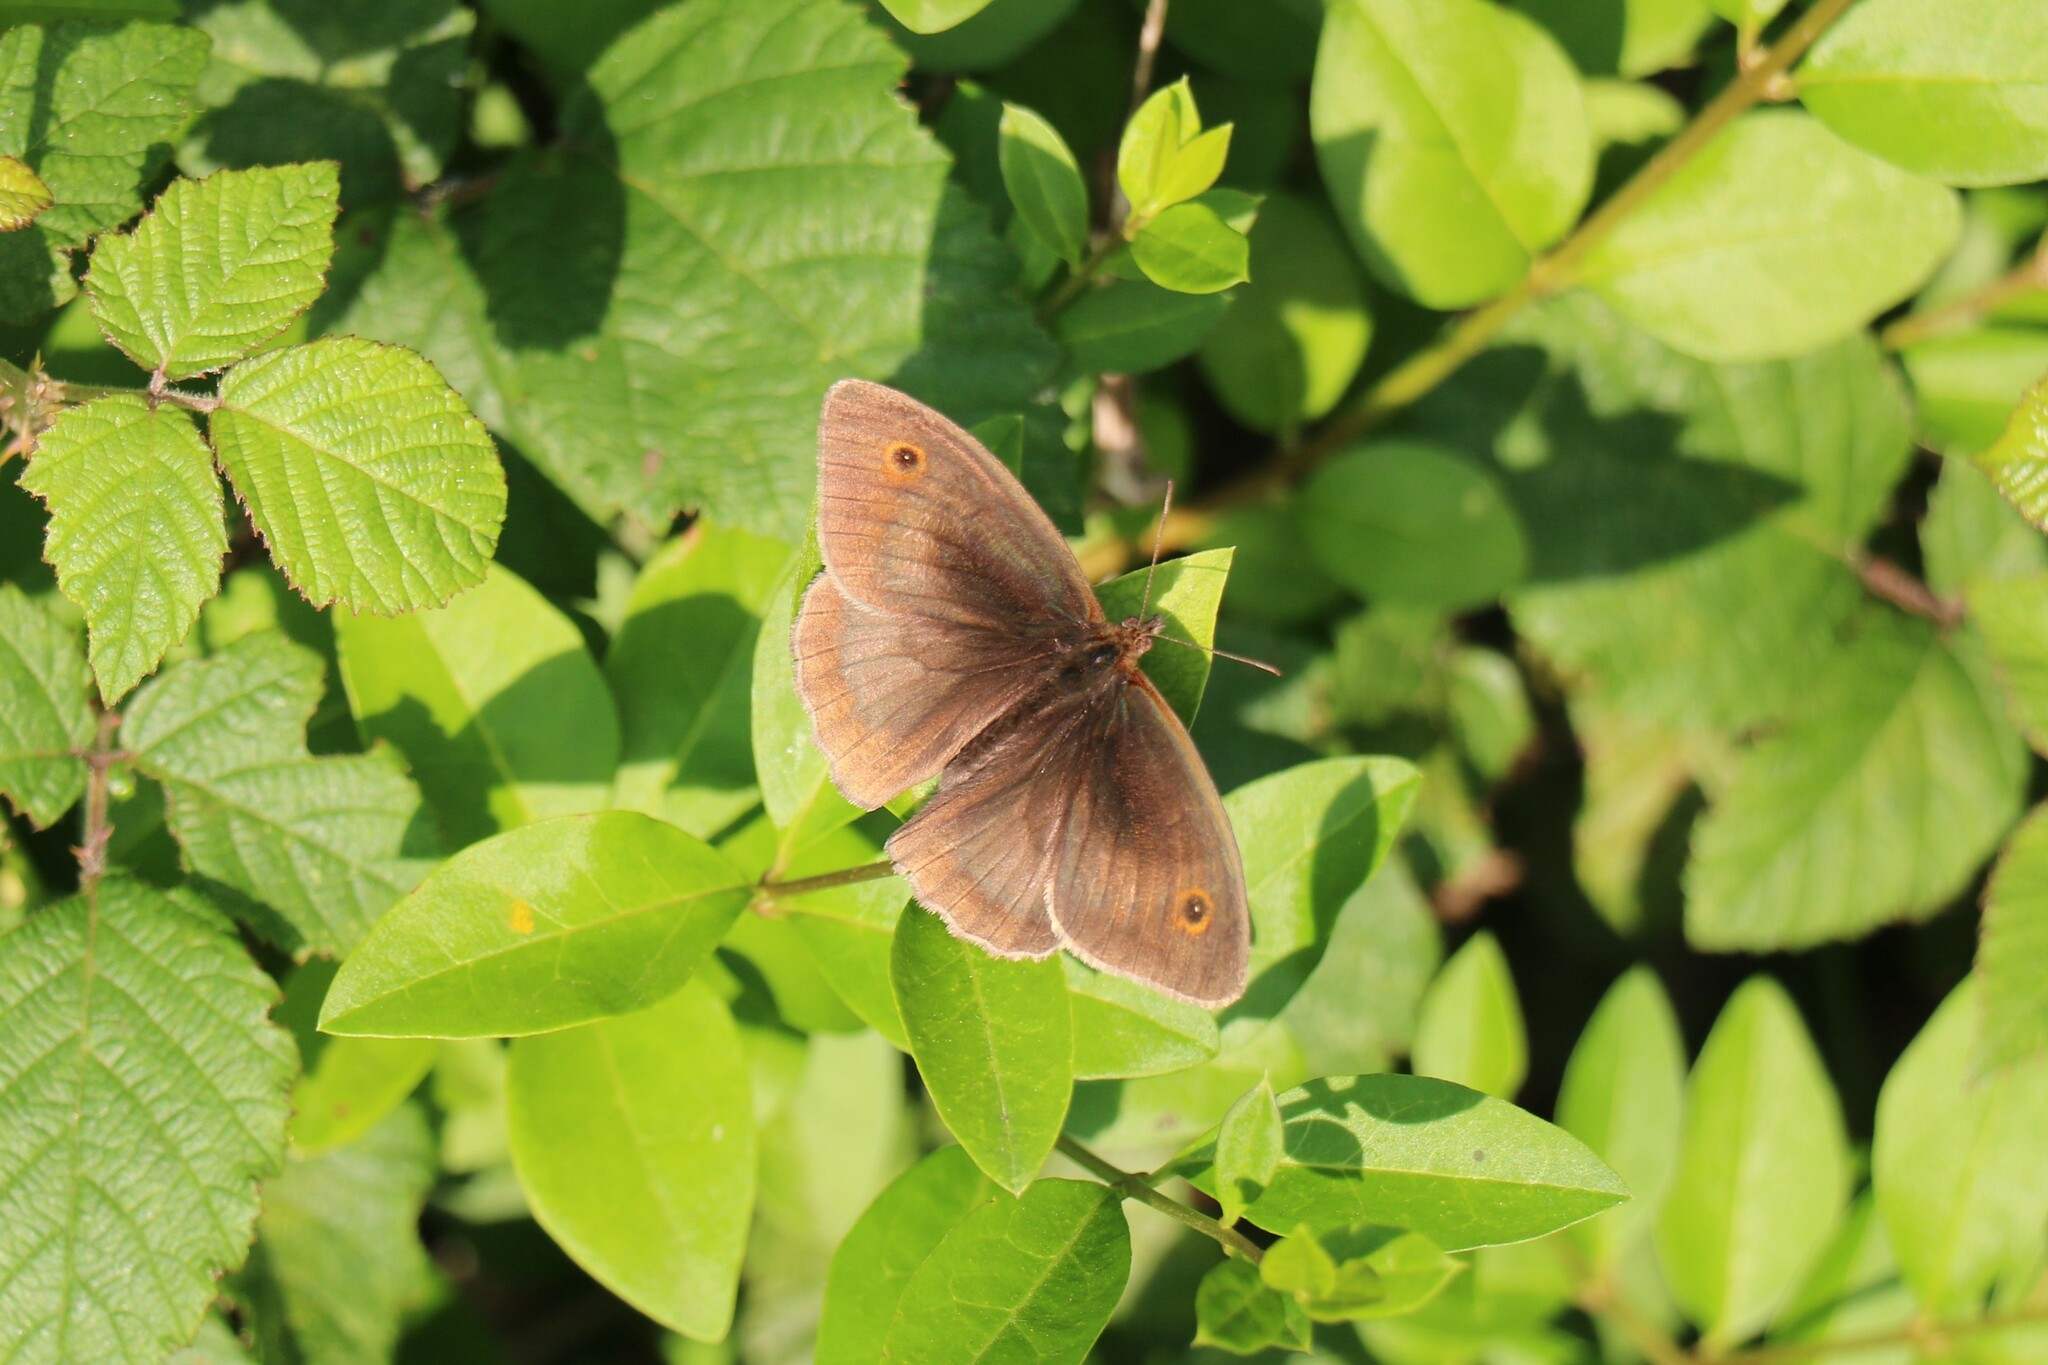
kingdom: Animalia
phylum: Arthropoda
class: Insecta
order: Lepidoptera
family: Nymphalidae
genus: Maniola
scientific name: Maniola jurtina
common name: Meadow brown
